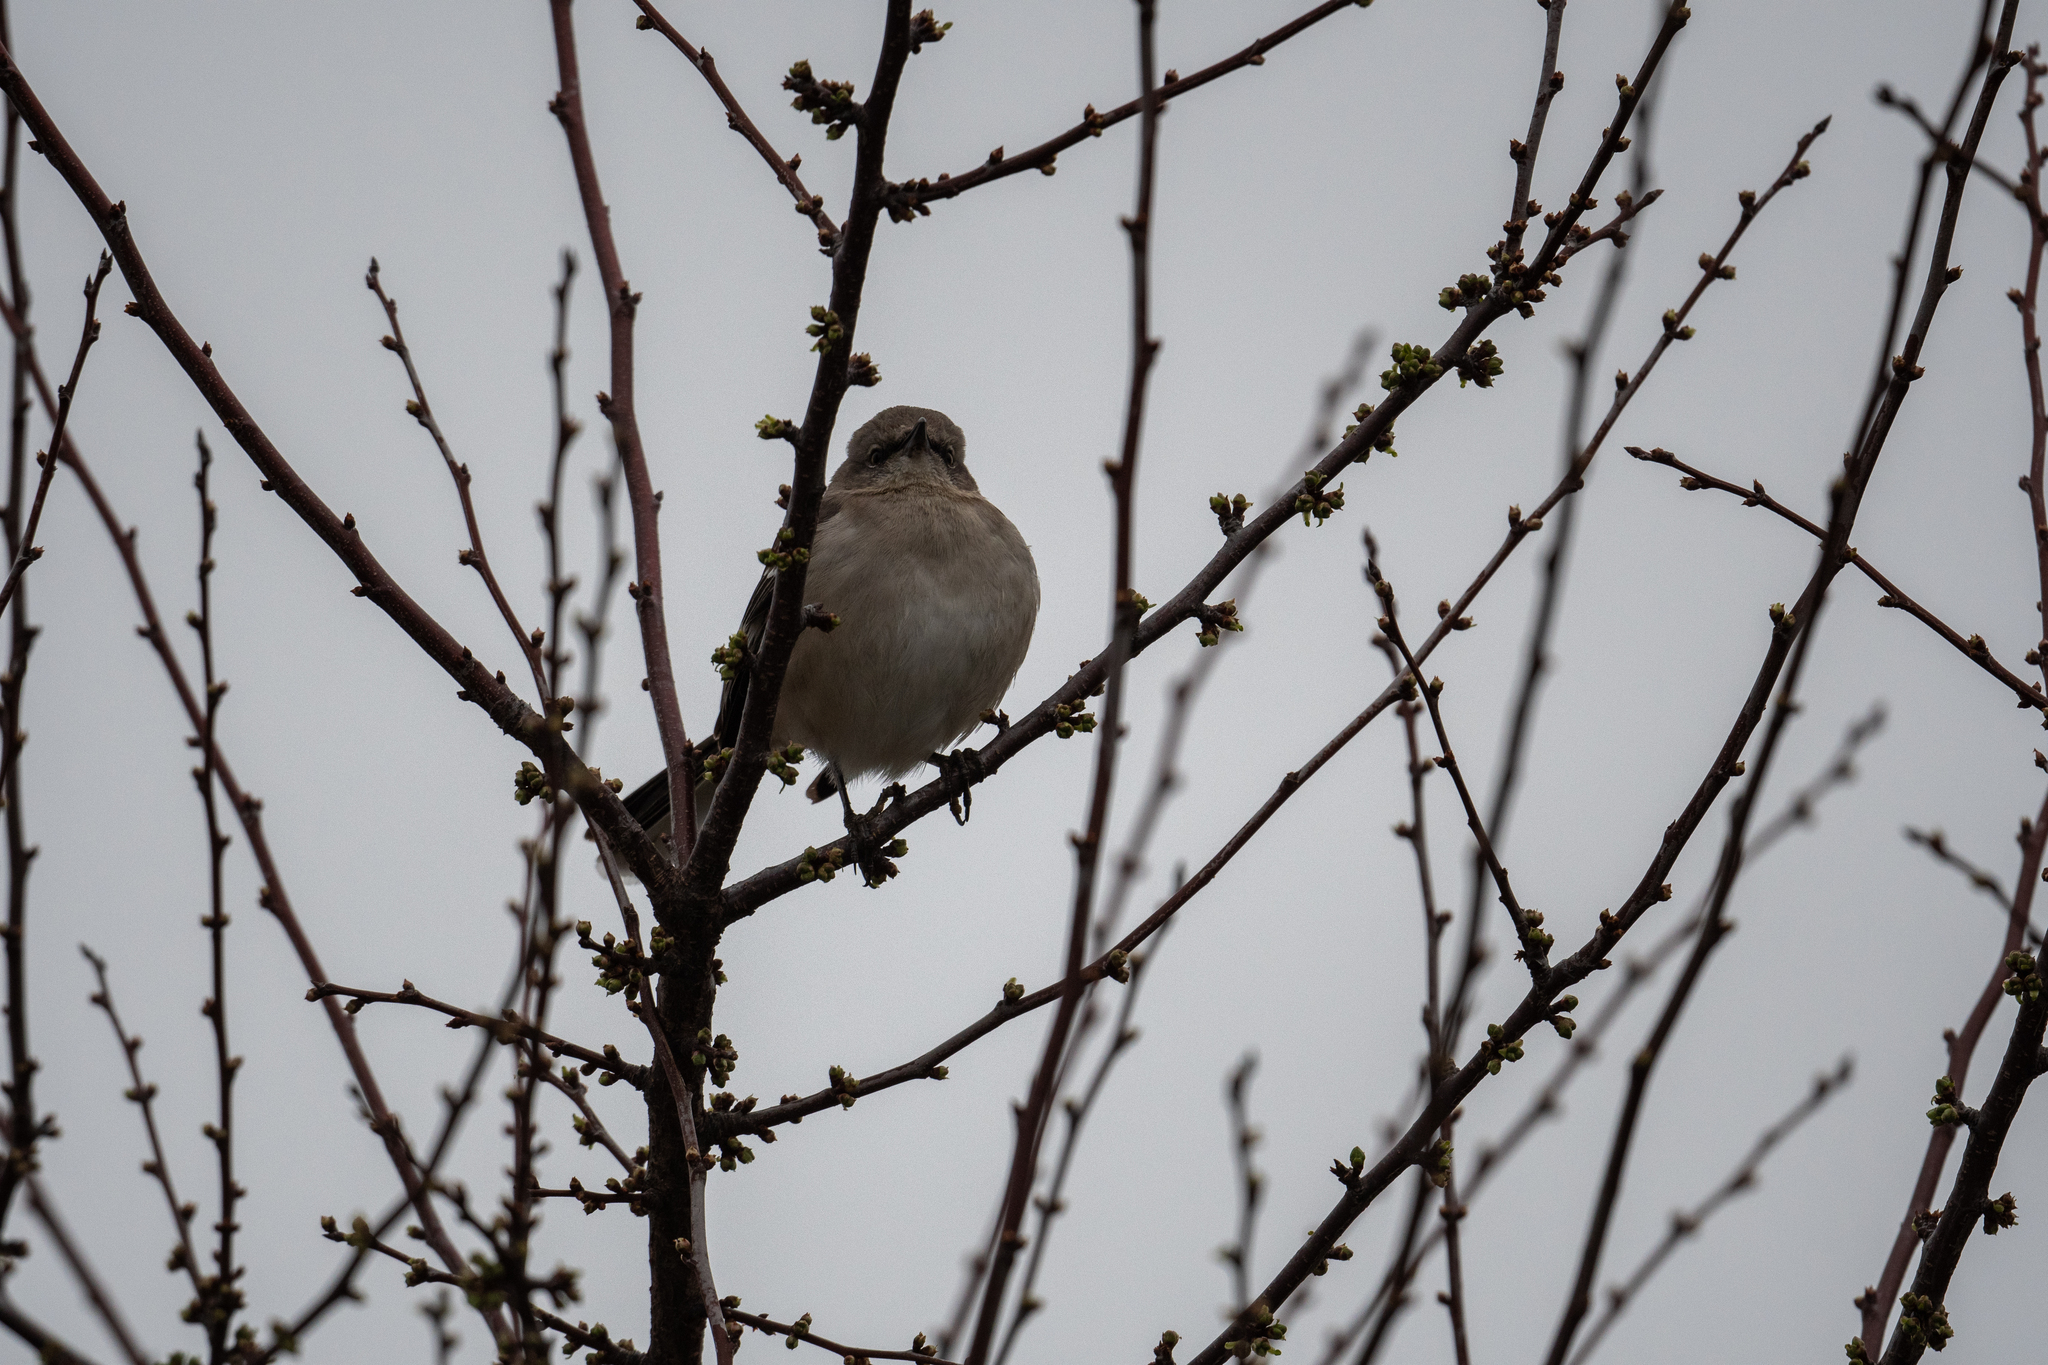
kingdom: Animalia
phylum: Chordata
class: Aves
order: Passeriformes
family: Mimidae
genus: Mimus
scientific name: Mimus polyglottos
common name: Northern mockingbird
